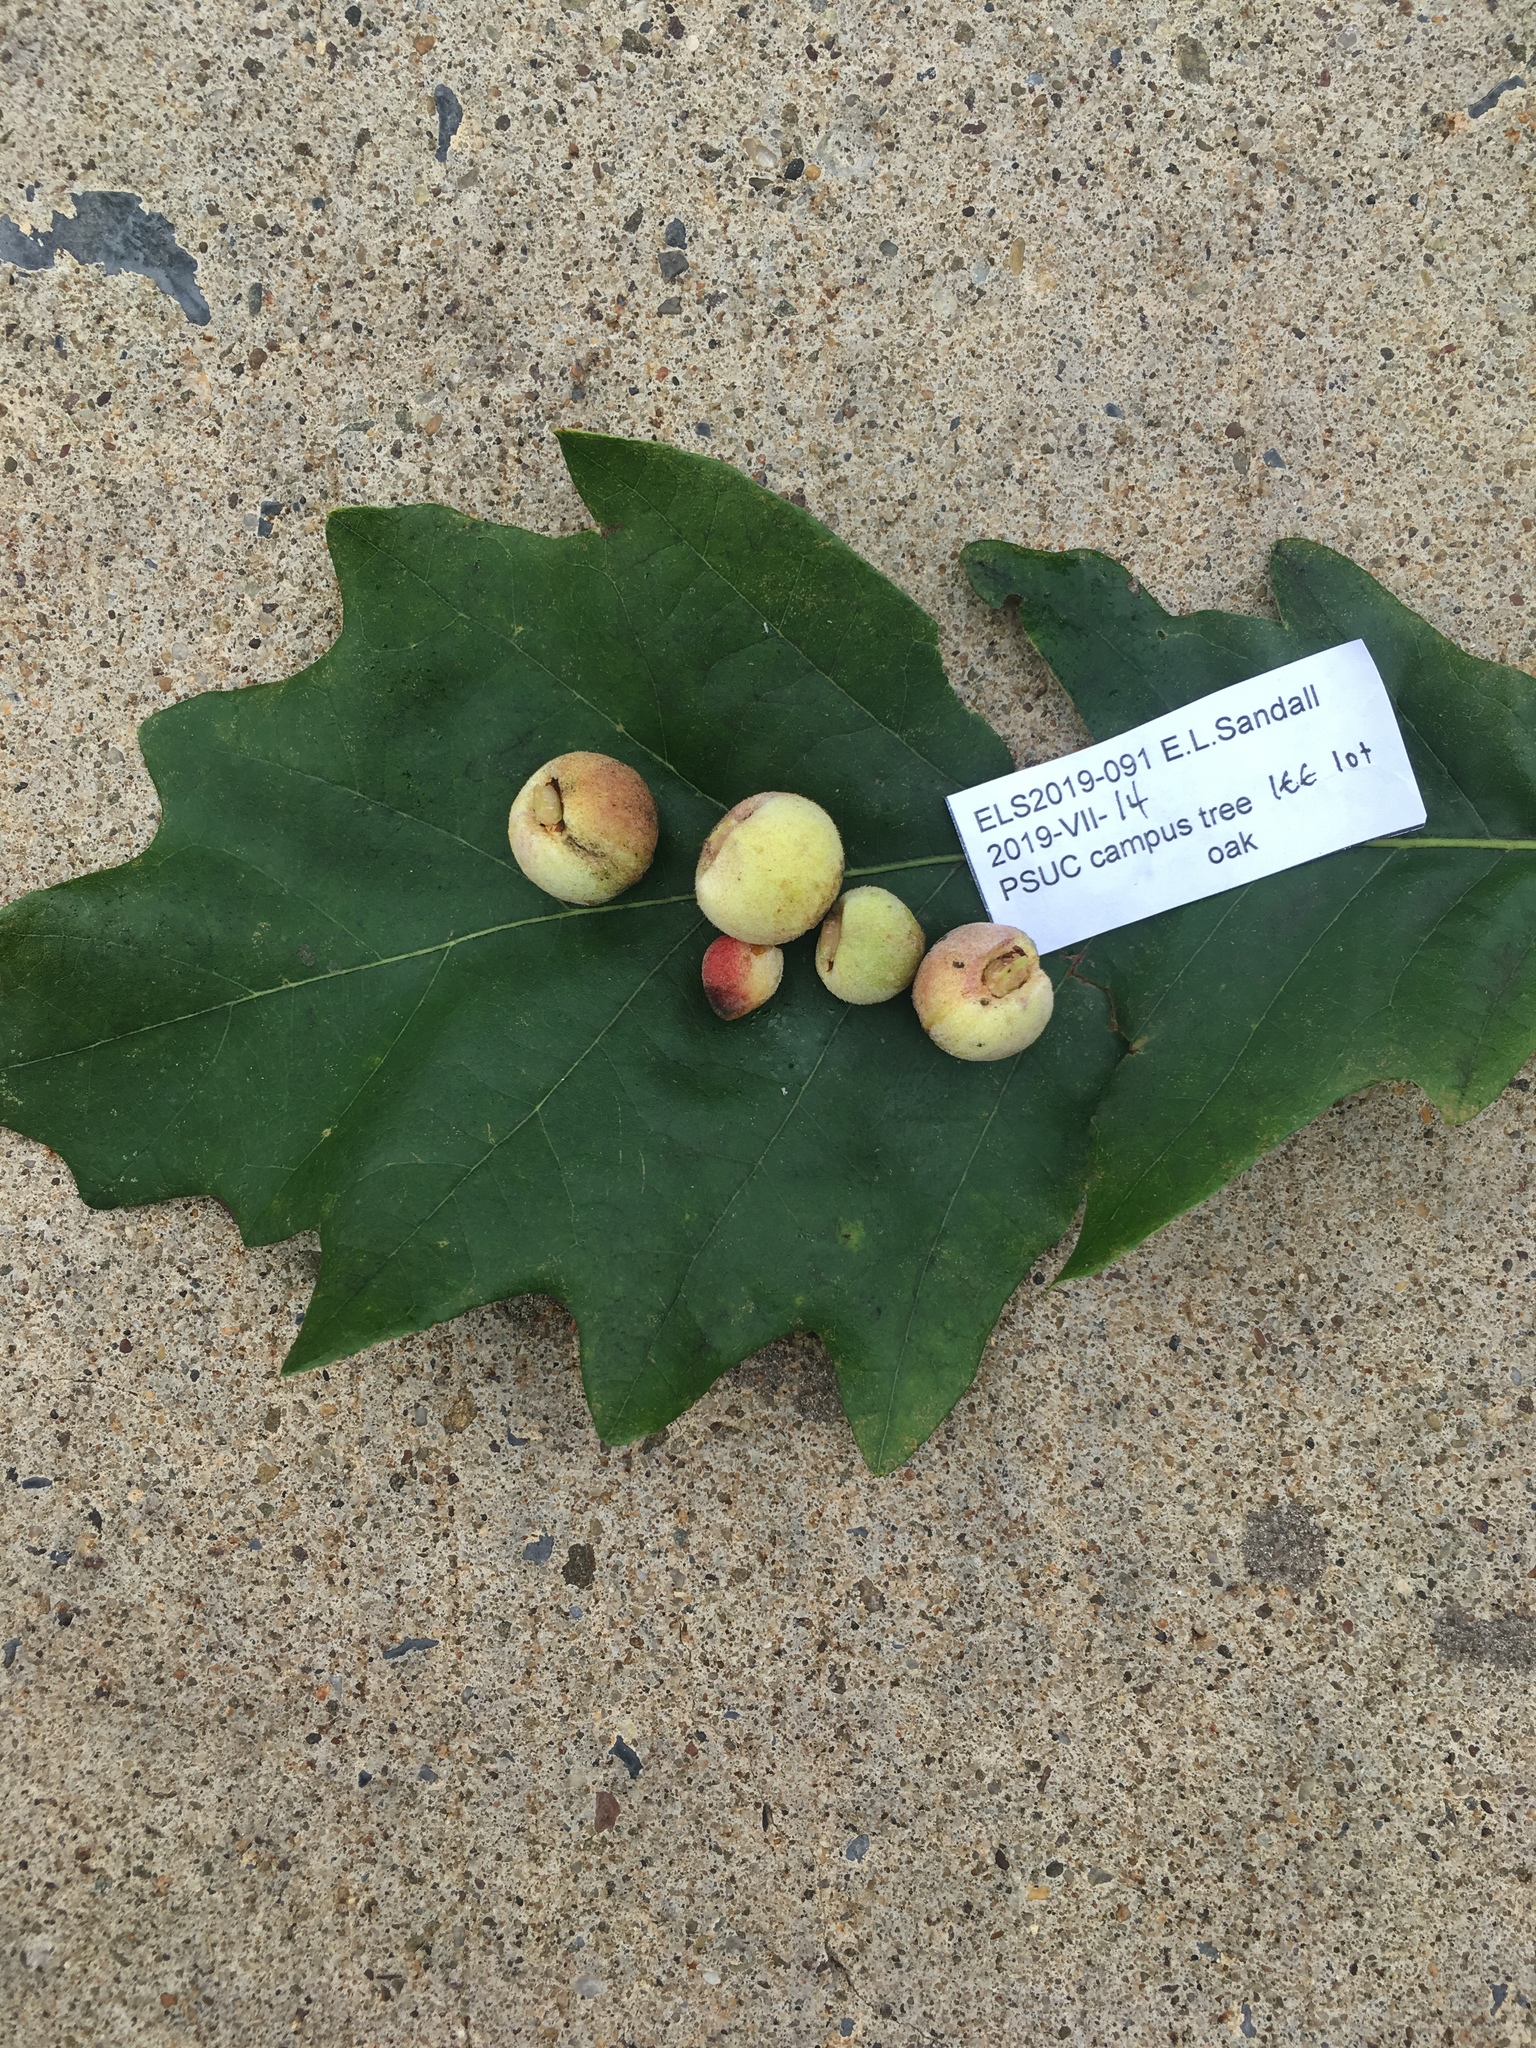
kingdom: Animalia
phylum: Arthropoda
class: Insecta
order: Hymenoptera
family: Cynipidae
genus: Disholcaspis
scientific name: Disholcaspis
